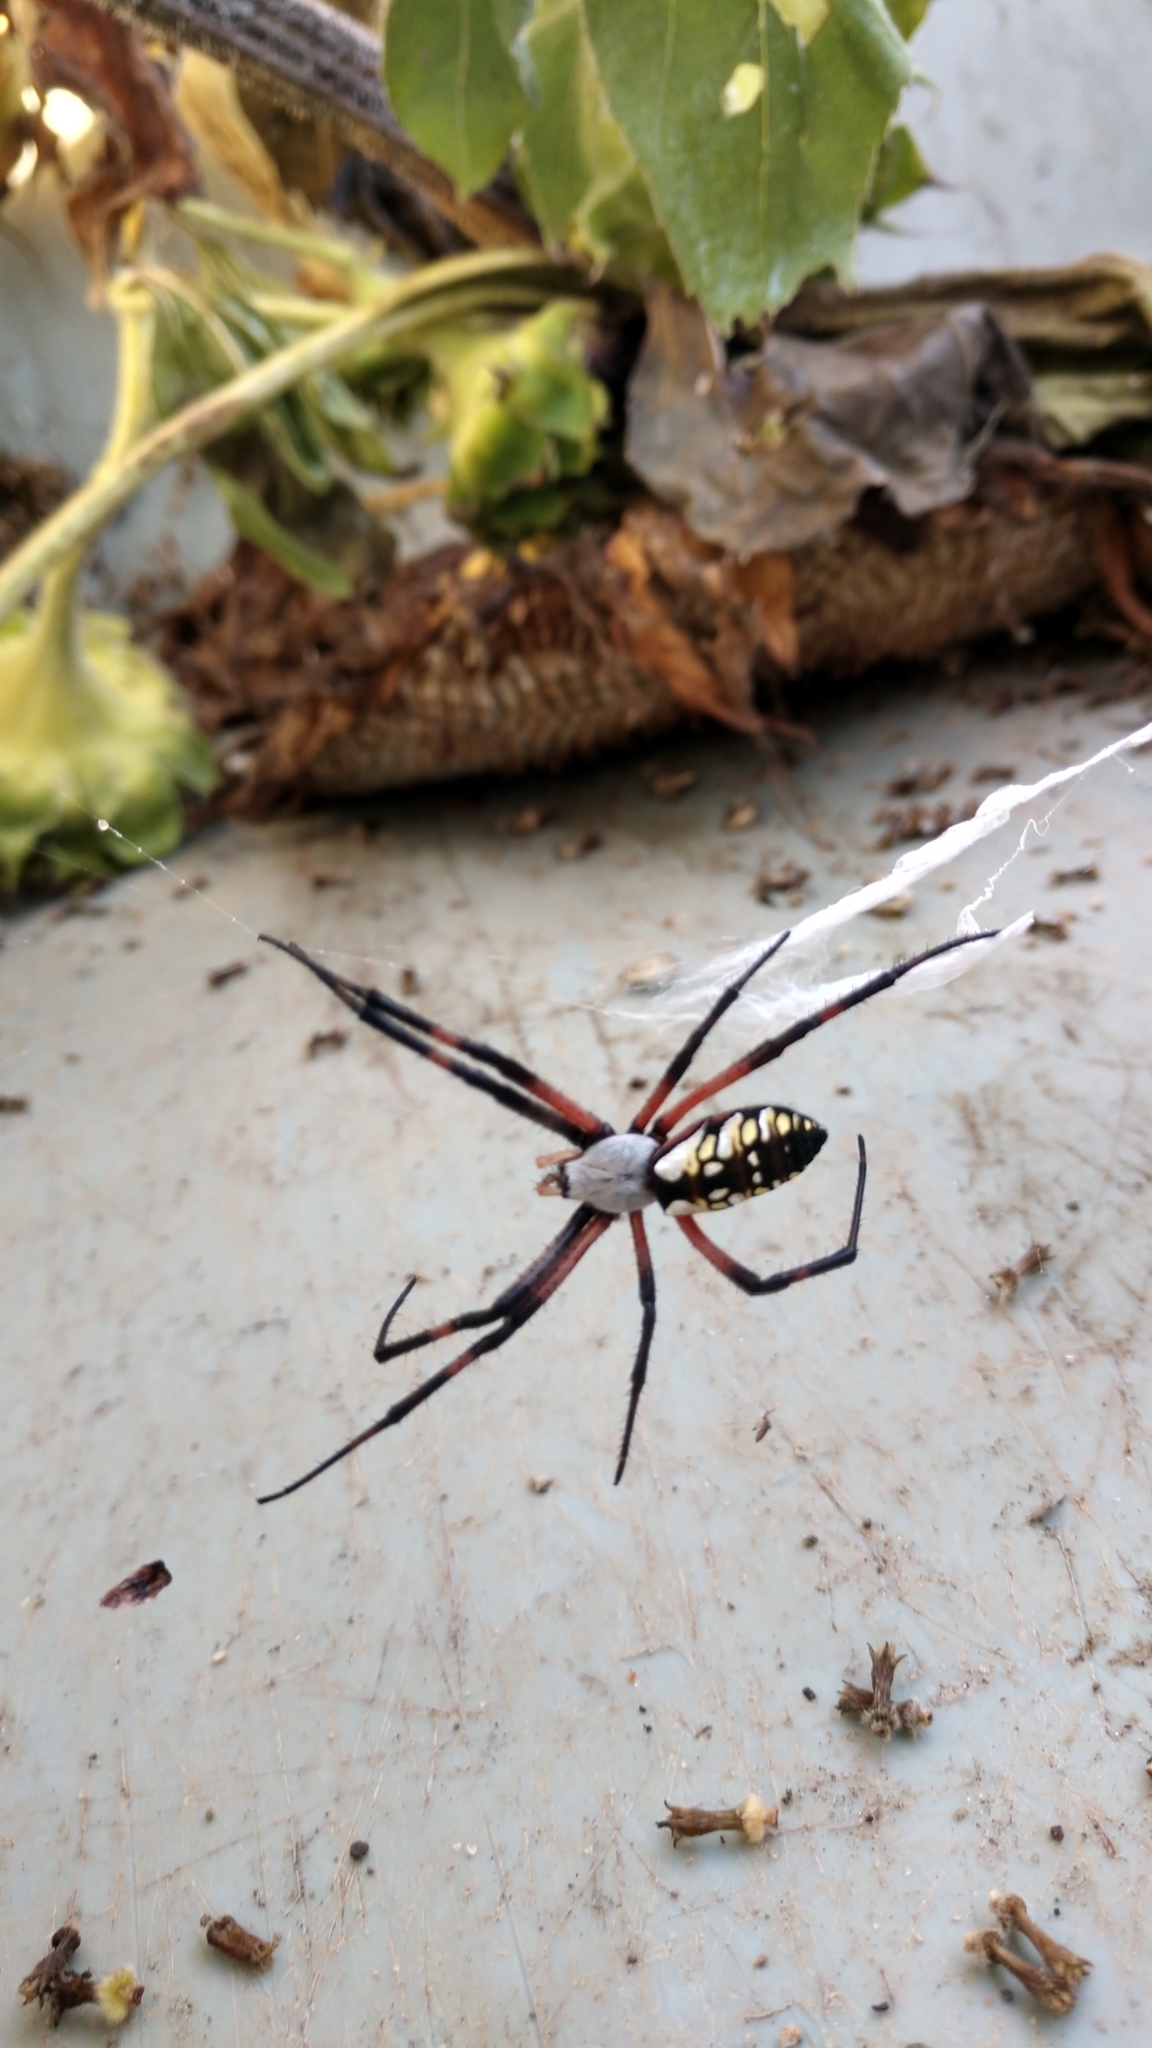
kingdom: Animalia
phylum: Arthropoda
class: Arachnida
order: Araneae
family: Araneidae
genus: Argiope
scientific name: Argiope aurantia
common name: Orb weavers
